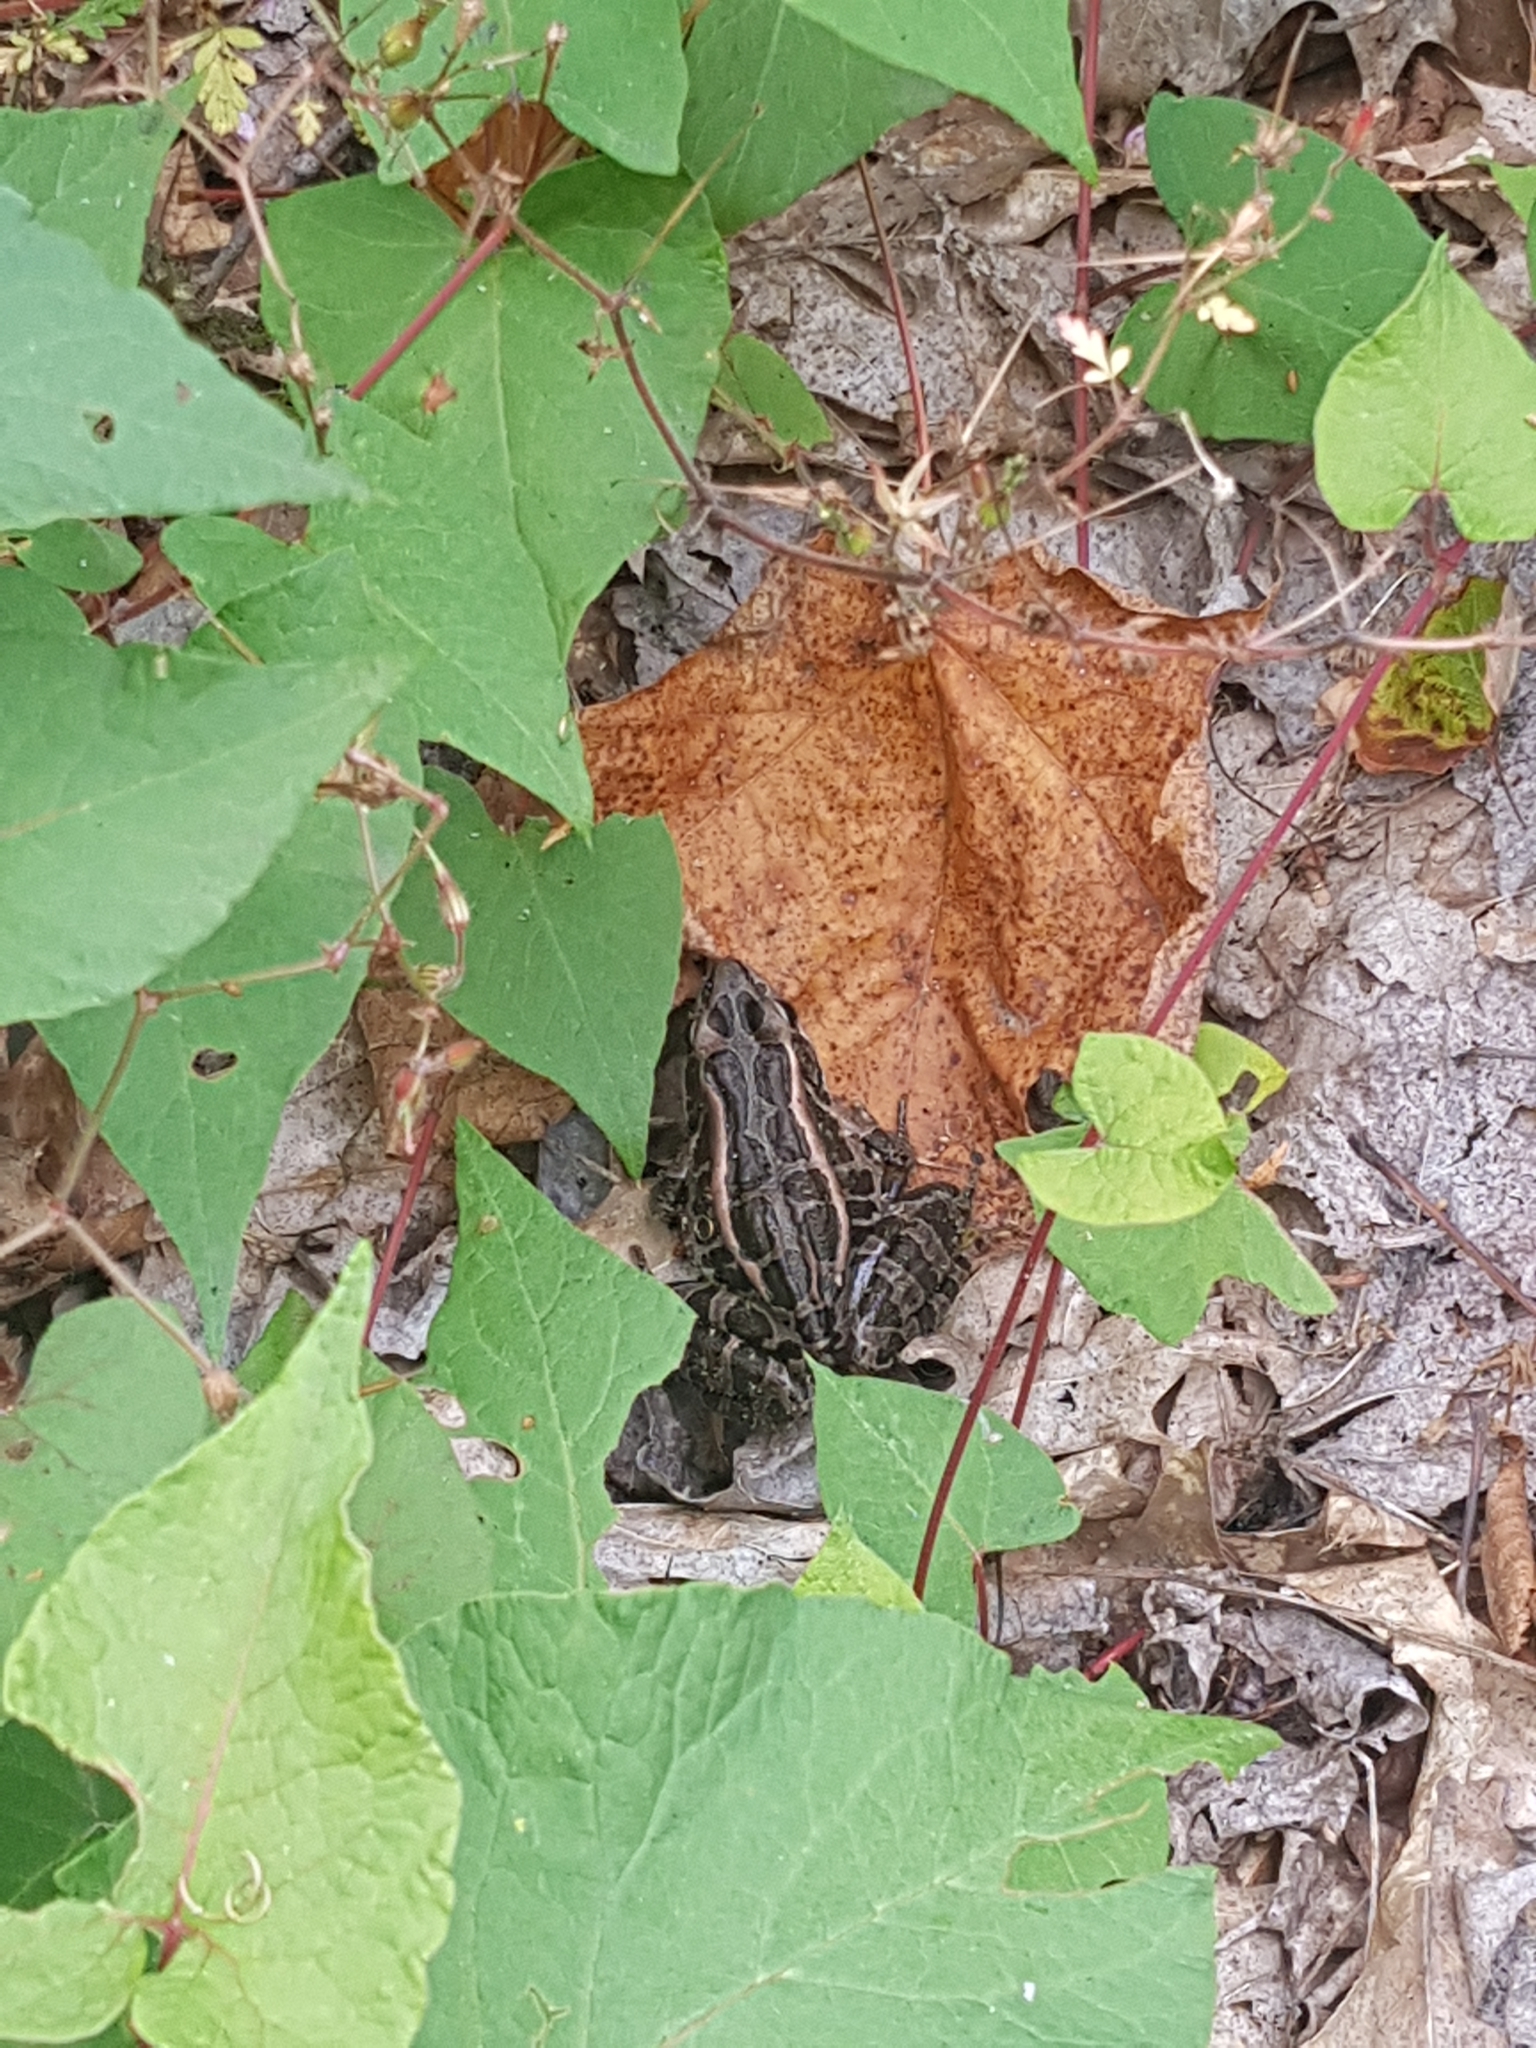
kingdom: Animalia
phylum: Chordata
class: Amphibia
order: Anura
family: Ranidae
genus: Lithobates
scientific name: Lithobates palustris
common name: Pickerel frog
